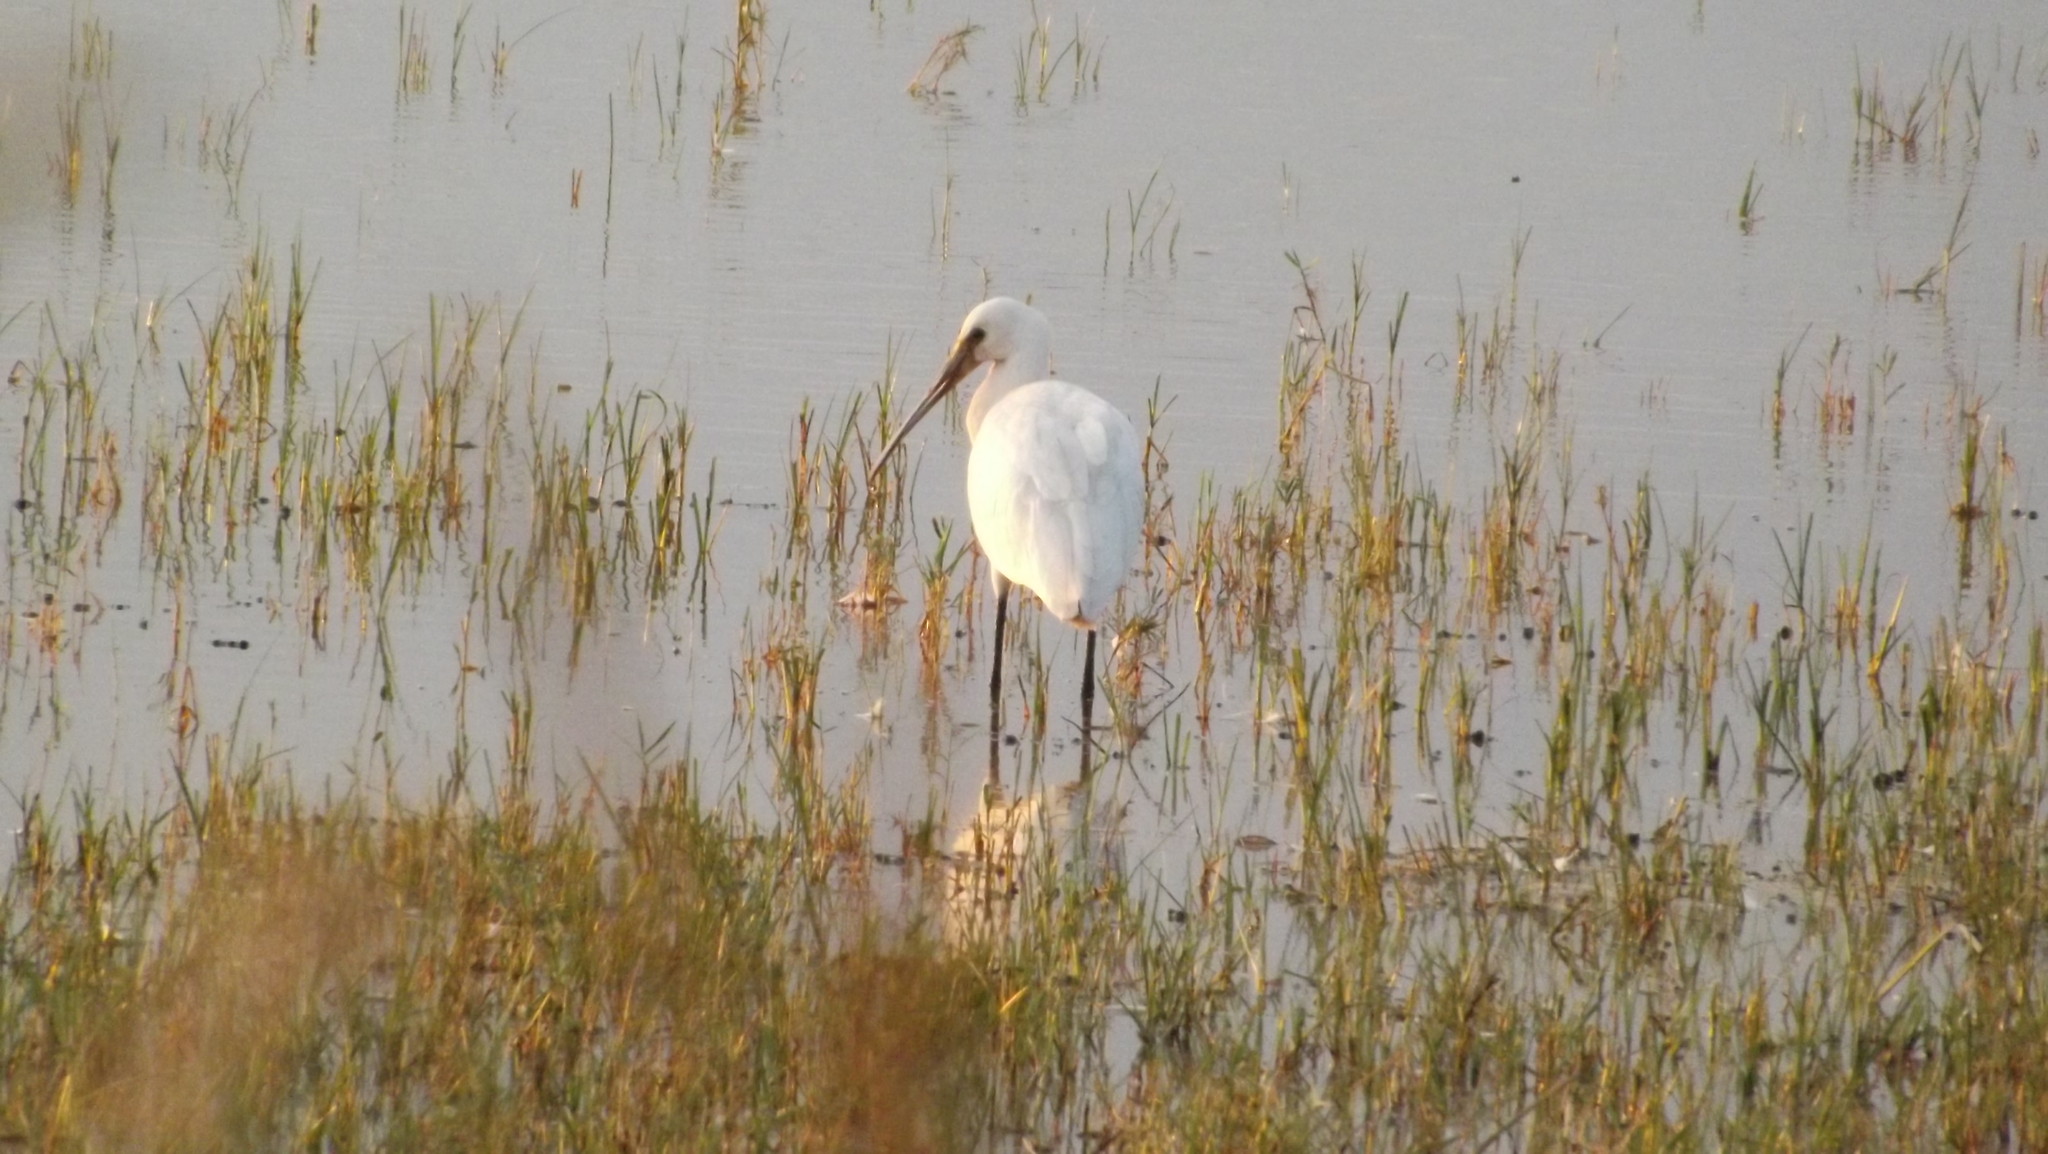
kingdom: Animalia
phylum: Chordata
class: Aves
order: Pelecaniformes
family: Threskiornithidae
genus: Platalea
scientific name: Platalea leucorodia
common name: Eurasian spoonbill
